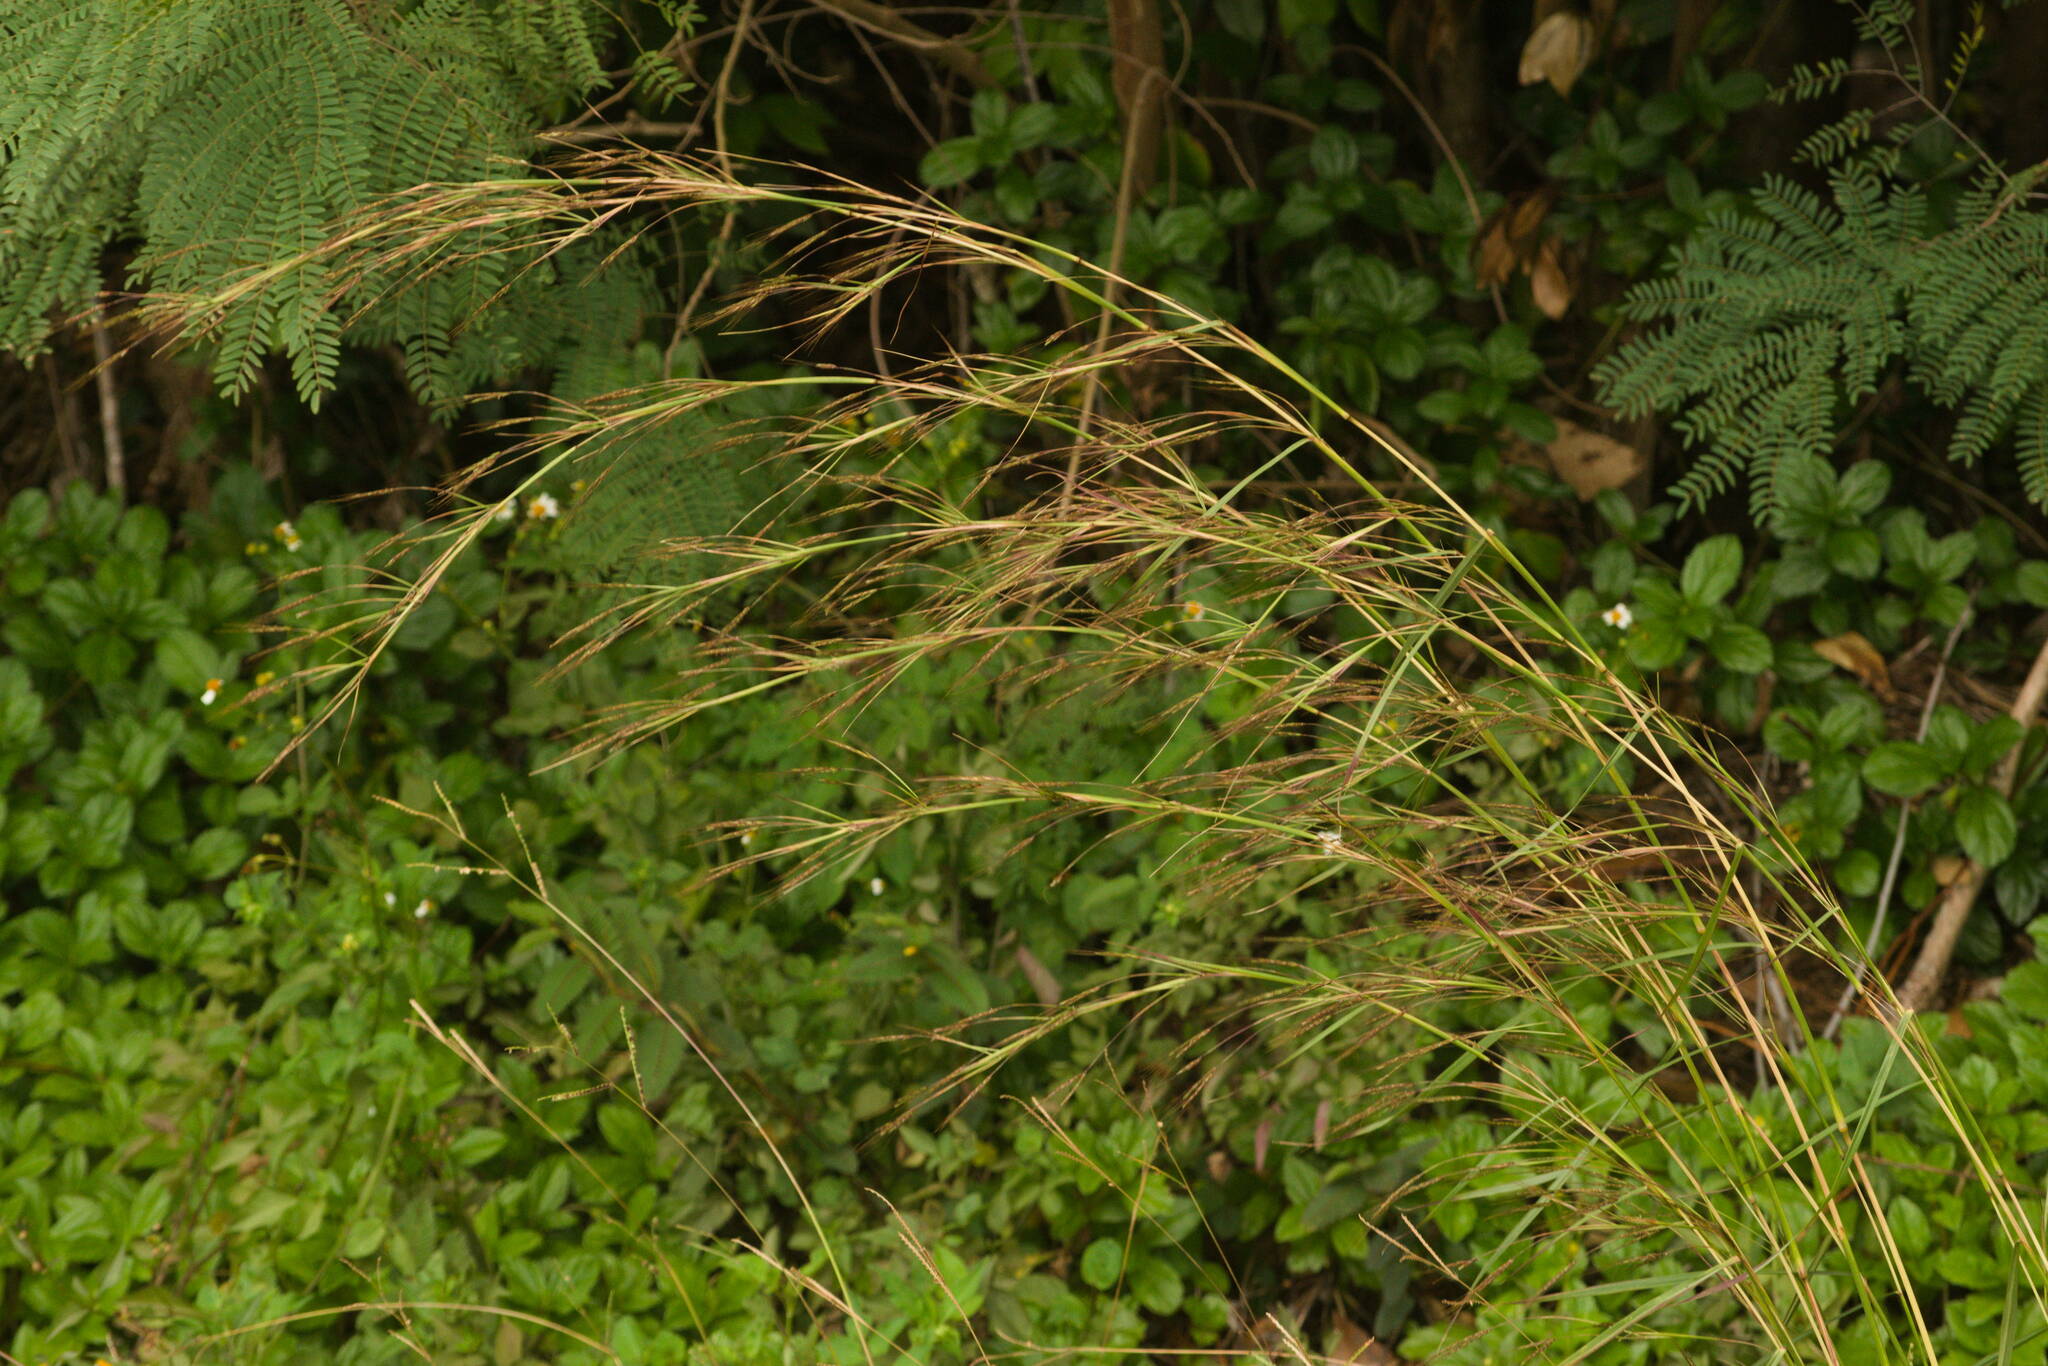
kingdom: Plantae
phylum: Tracheophyta
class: Liliopsida
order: Poales
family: Poaceae
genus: Hyparrhenia
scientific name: Hyparrhenia rufa
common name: Jaraguagrass
